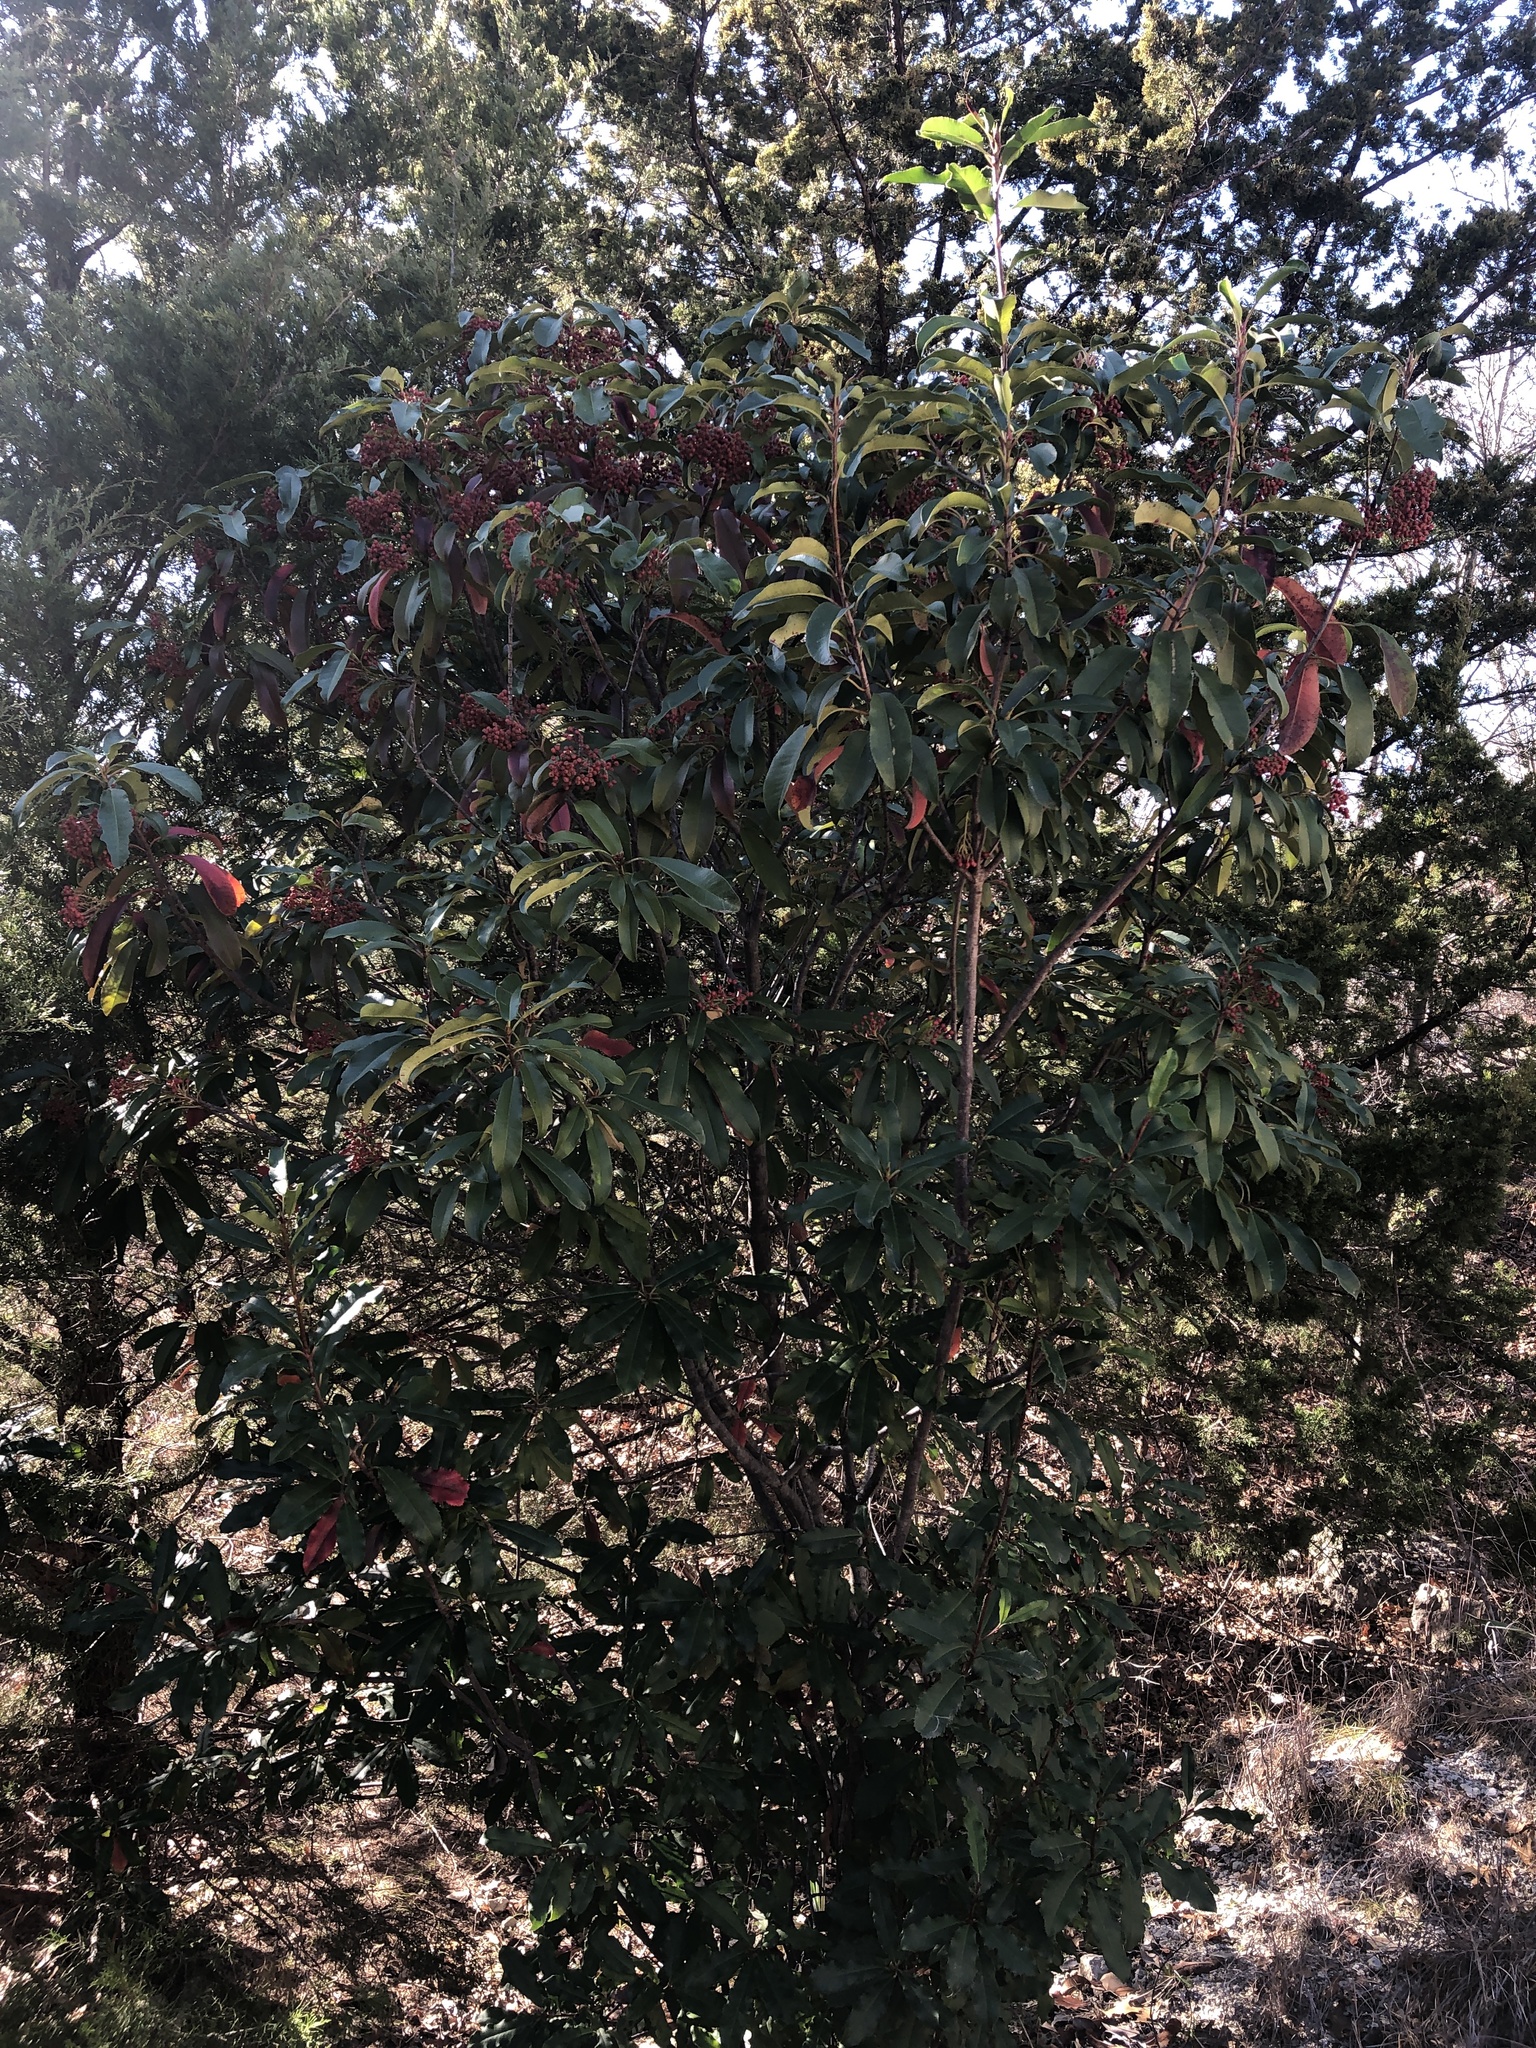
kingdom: Plantae
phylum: Tracheophyta
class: Magnoliopsida
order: Rosales
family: Rosaceae
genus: Photinia
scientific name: Photinia serratifolia
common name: Taiwanese photinia
